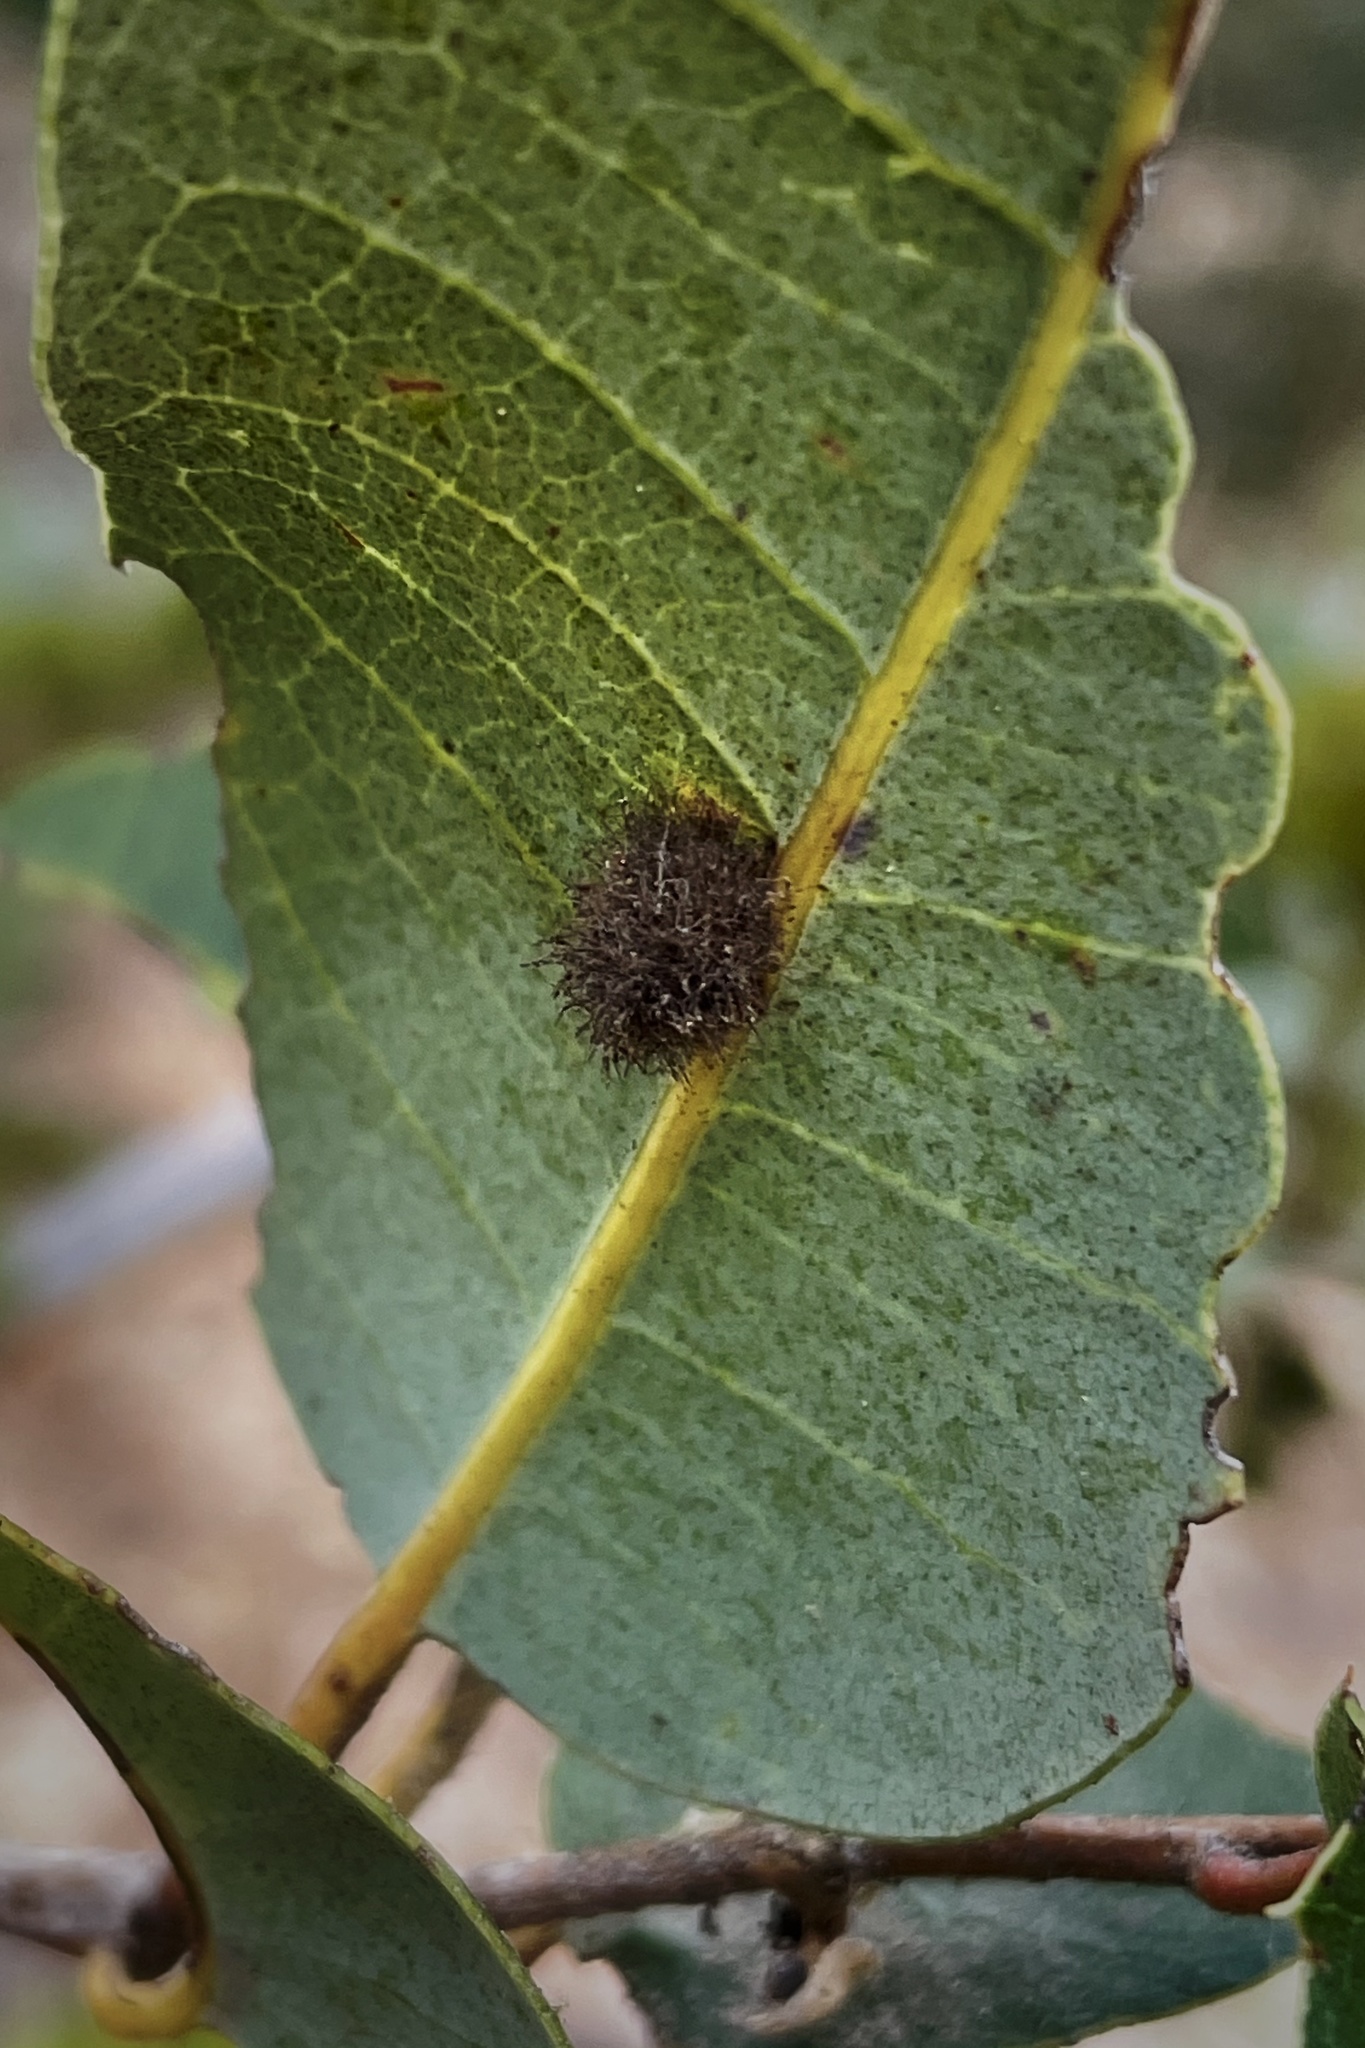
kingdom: Animalia
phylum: Arthropoda
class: Insecta
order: Hymenoptera
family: Cynipidae
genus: Disholandricus
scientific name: Disholandricus
